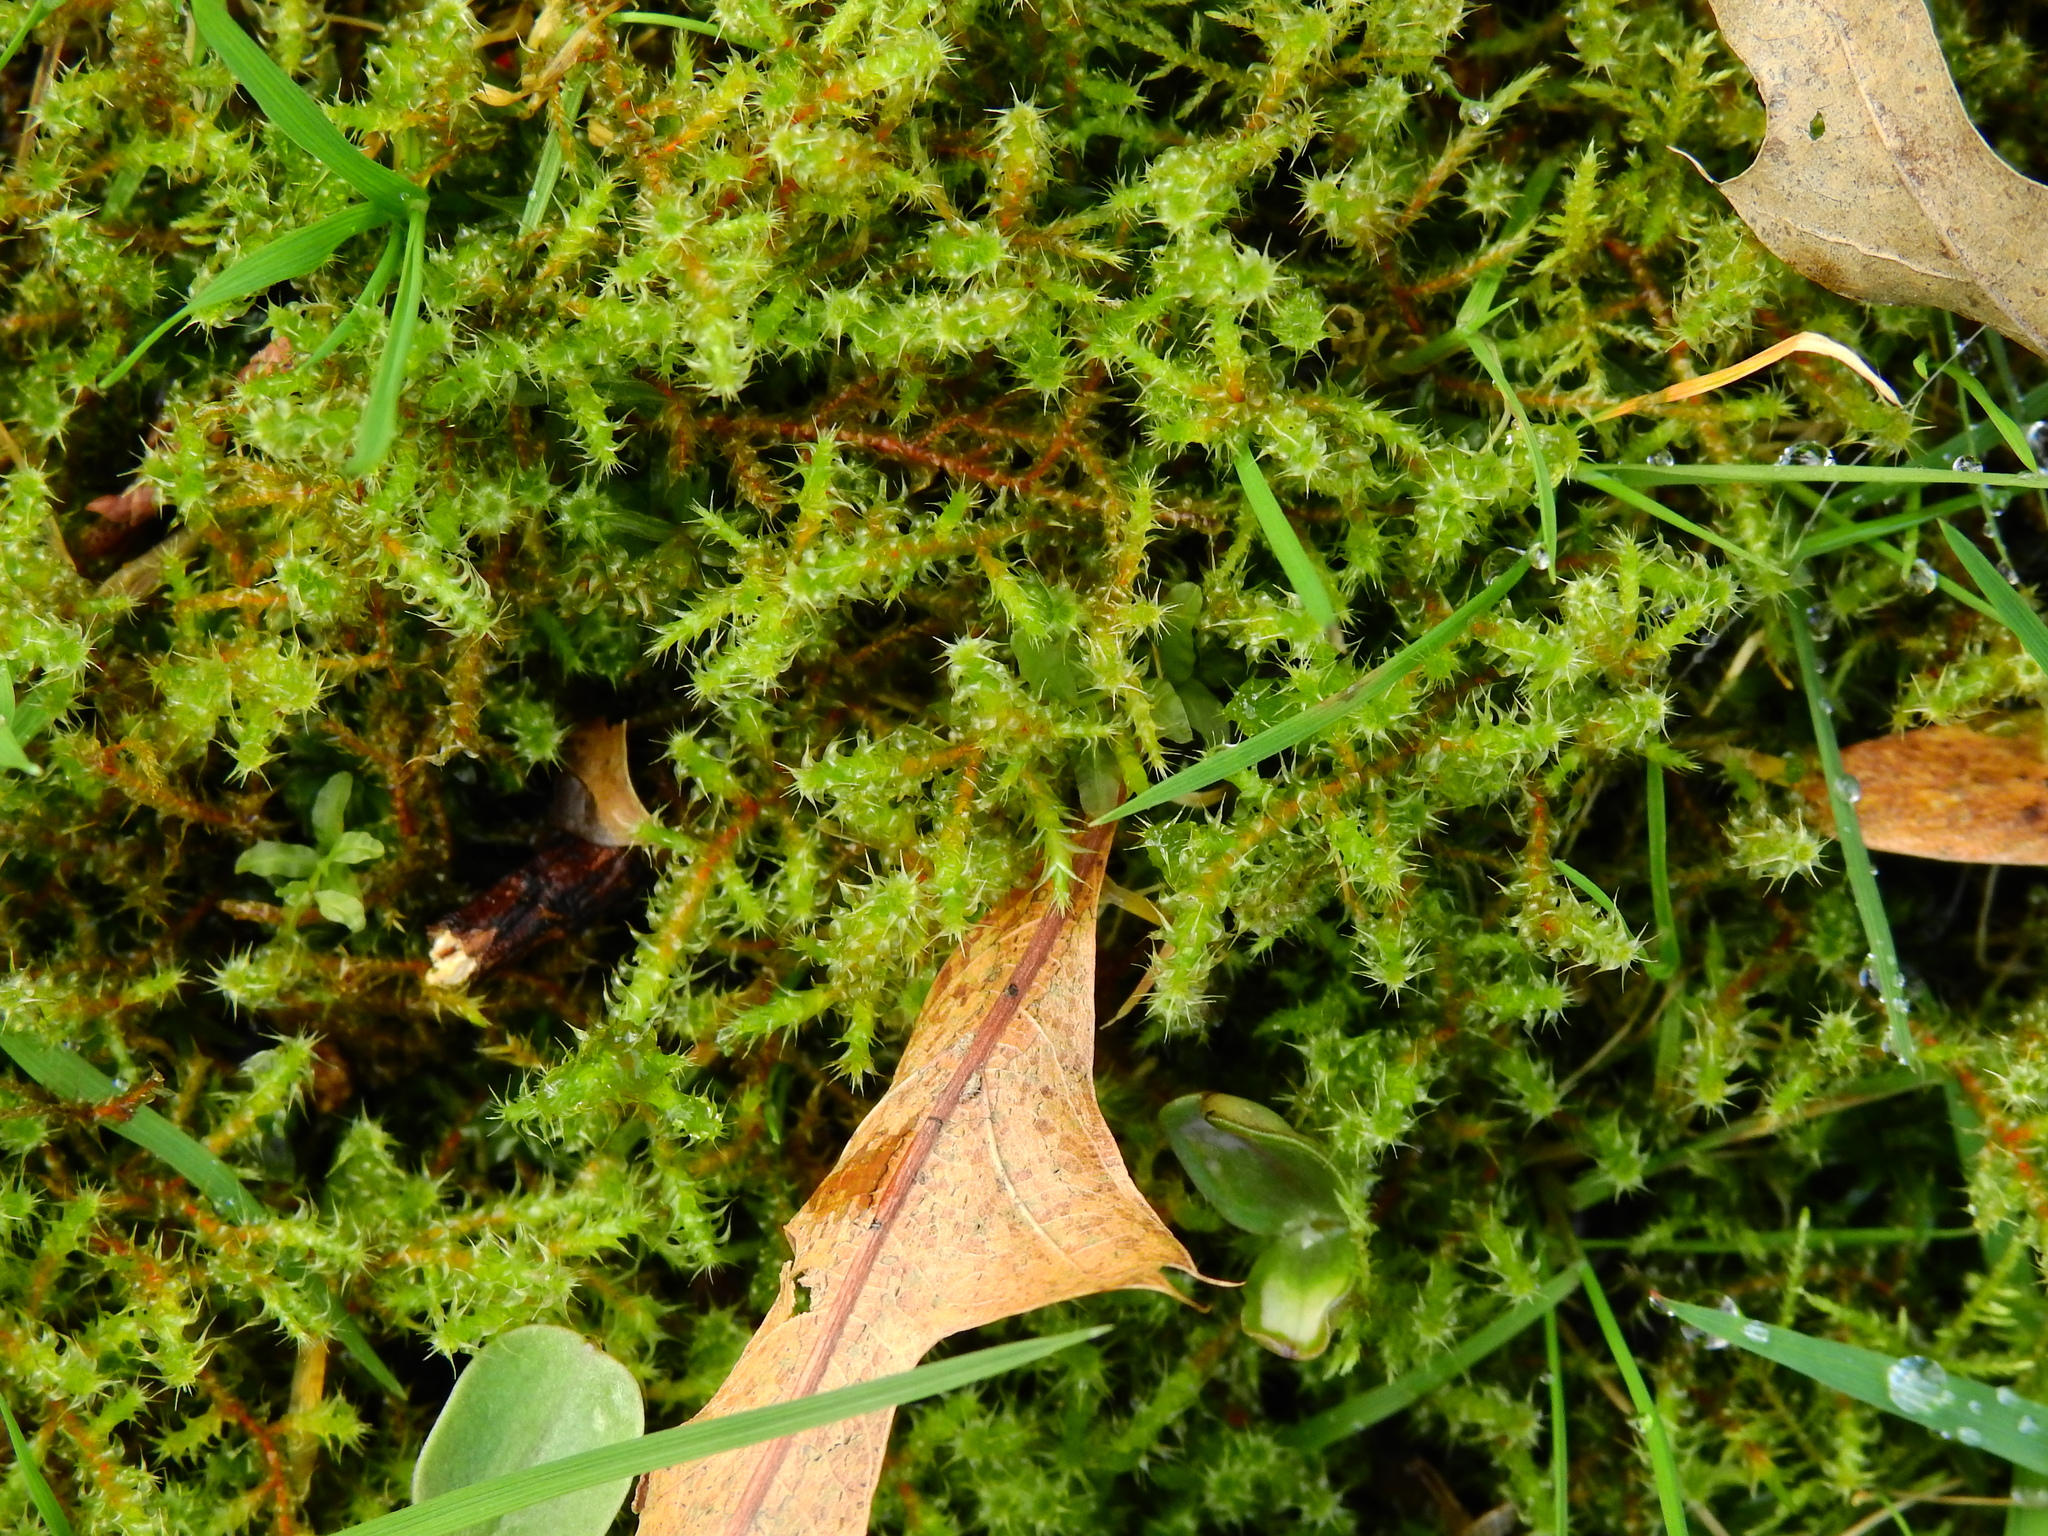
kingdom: Plantae
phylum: Bryophyta
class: Bryopsida
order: Hypnales
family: Hylocomiaceae
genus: Rhytidiadelphus
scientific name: Rhytidiadelphus squarrosus
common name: Springy turf-moss
